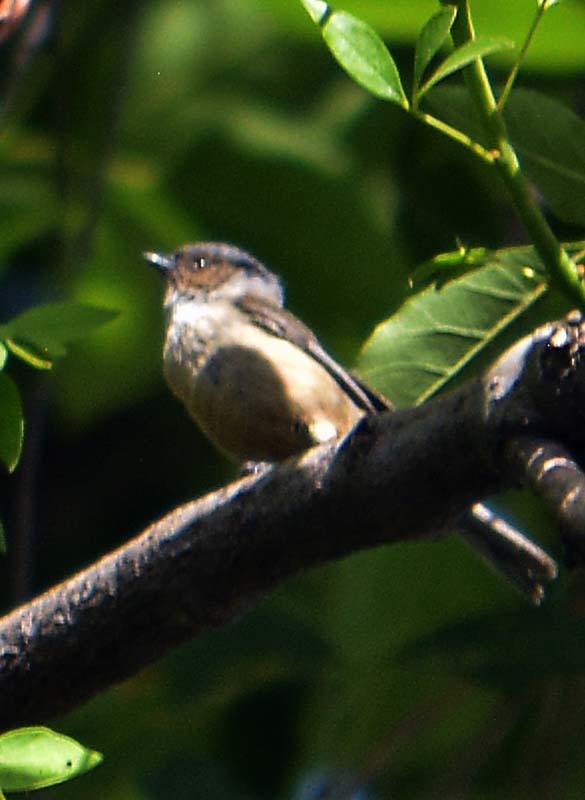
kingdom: Animalia
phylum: Chordata
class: Aves
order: Passeriformes
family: Aegithalidae
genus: Psaltriparus
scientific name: Psaltriparus minimus
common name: American bushtit
